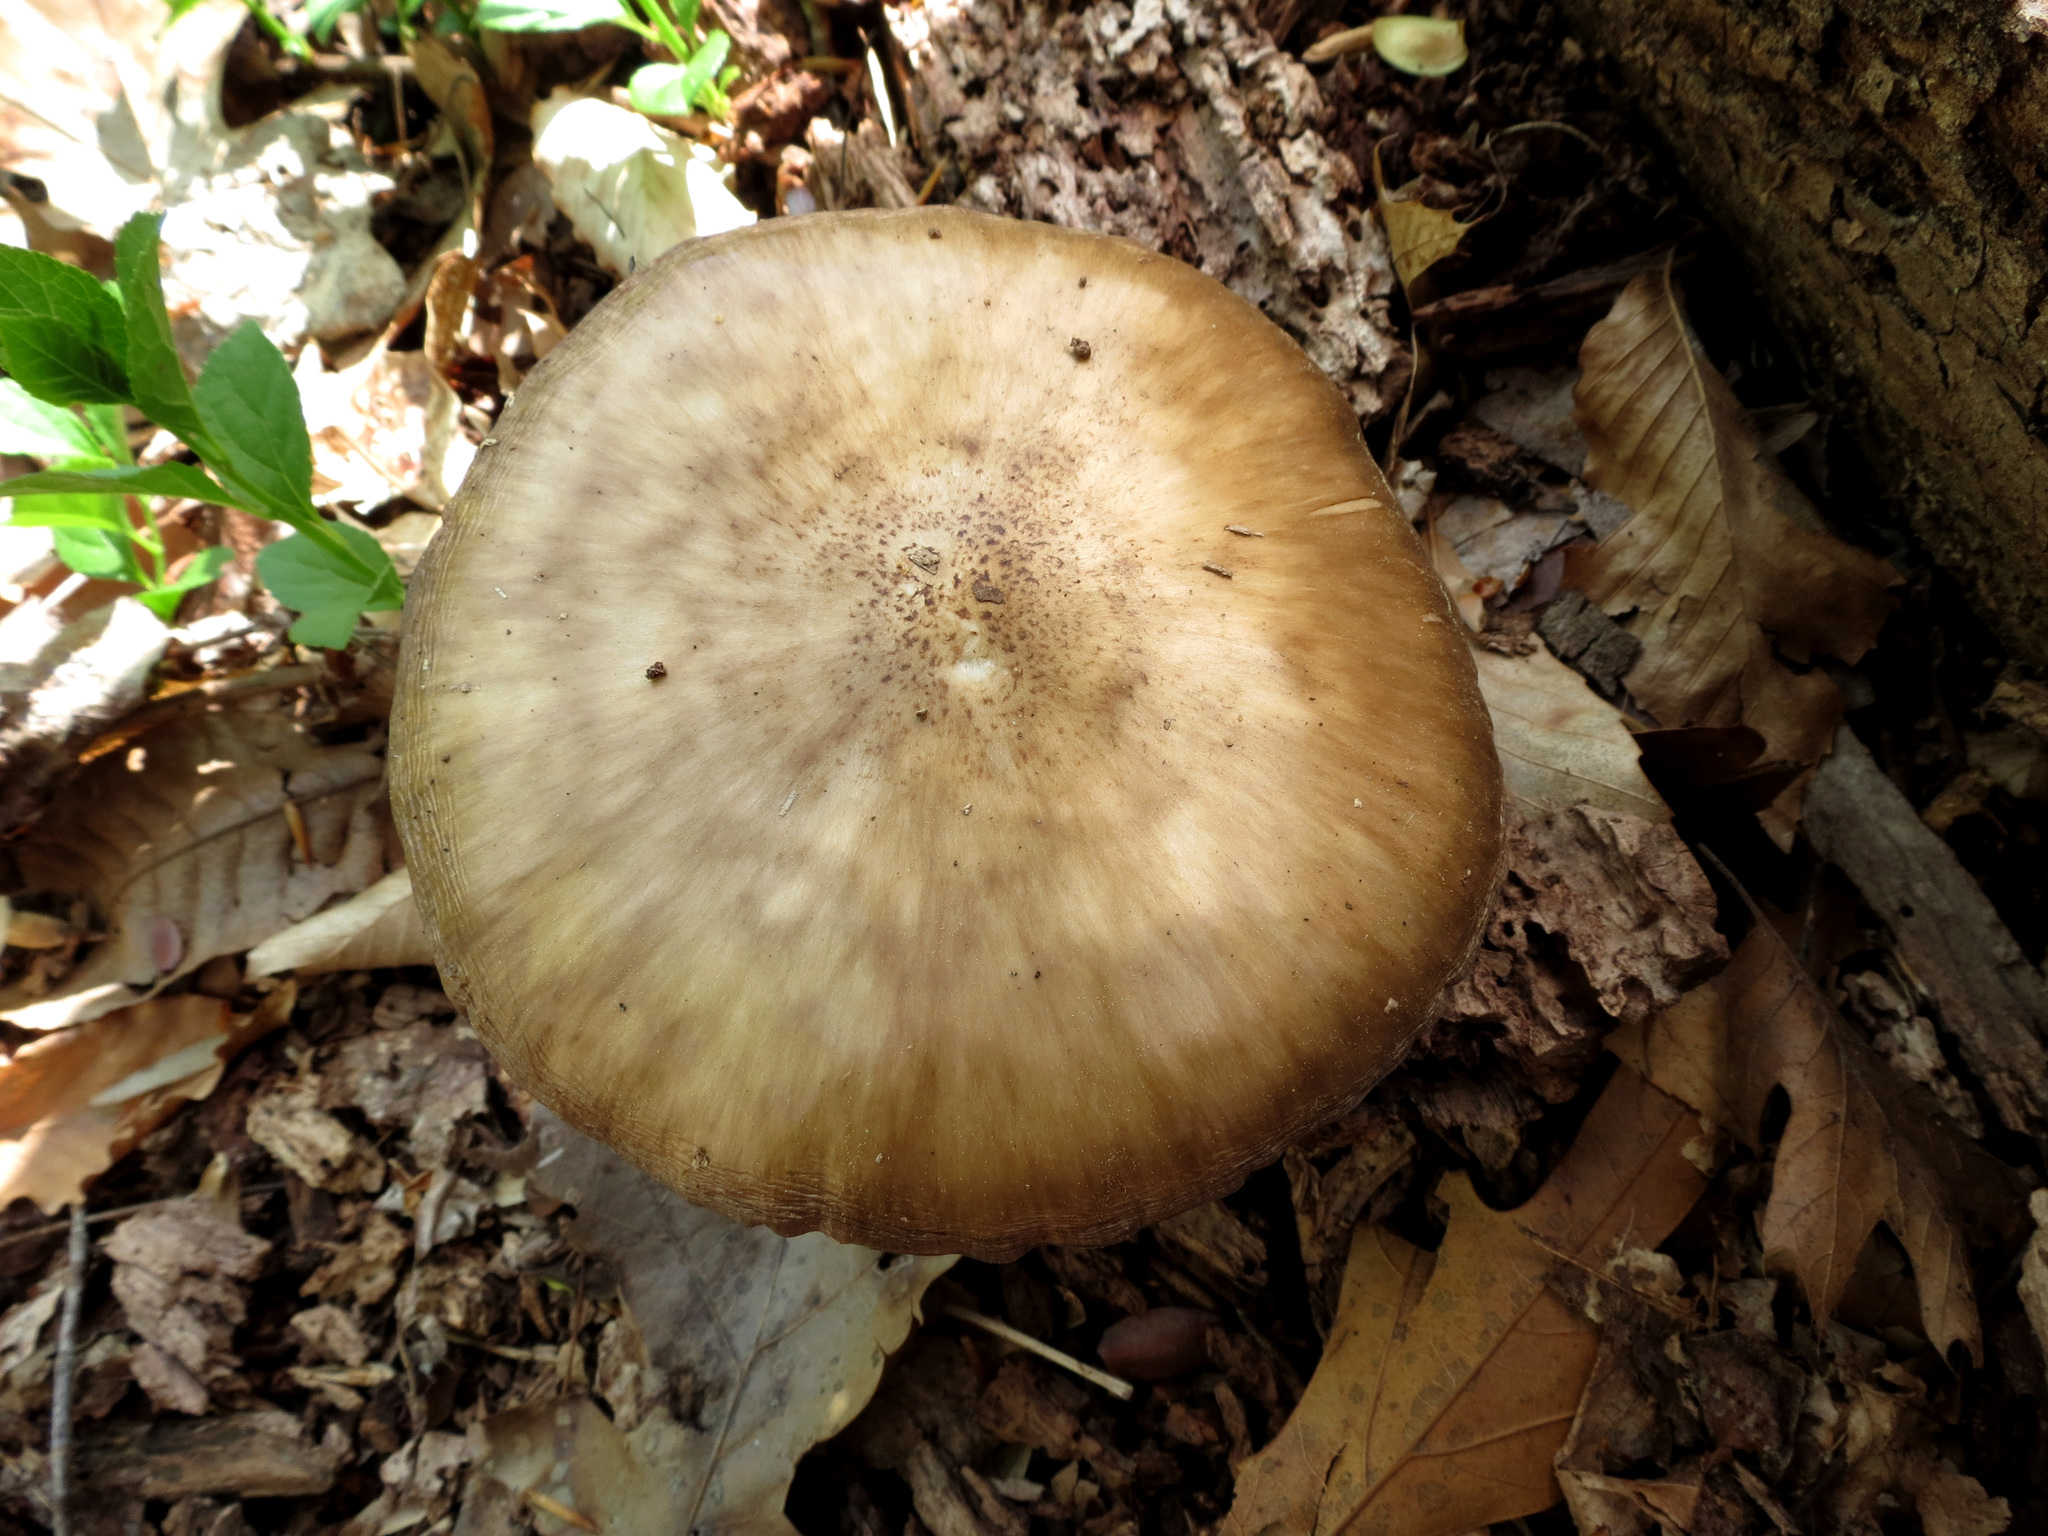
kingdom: Fungi
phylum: Basidiomycota
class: Agaricomycetes
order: Agaricales
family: Pluteaceae
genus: Pluteus
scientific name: Pluteus cervinus
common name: Deer shield
